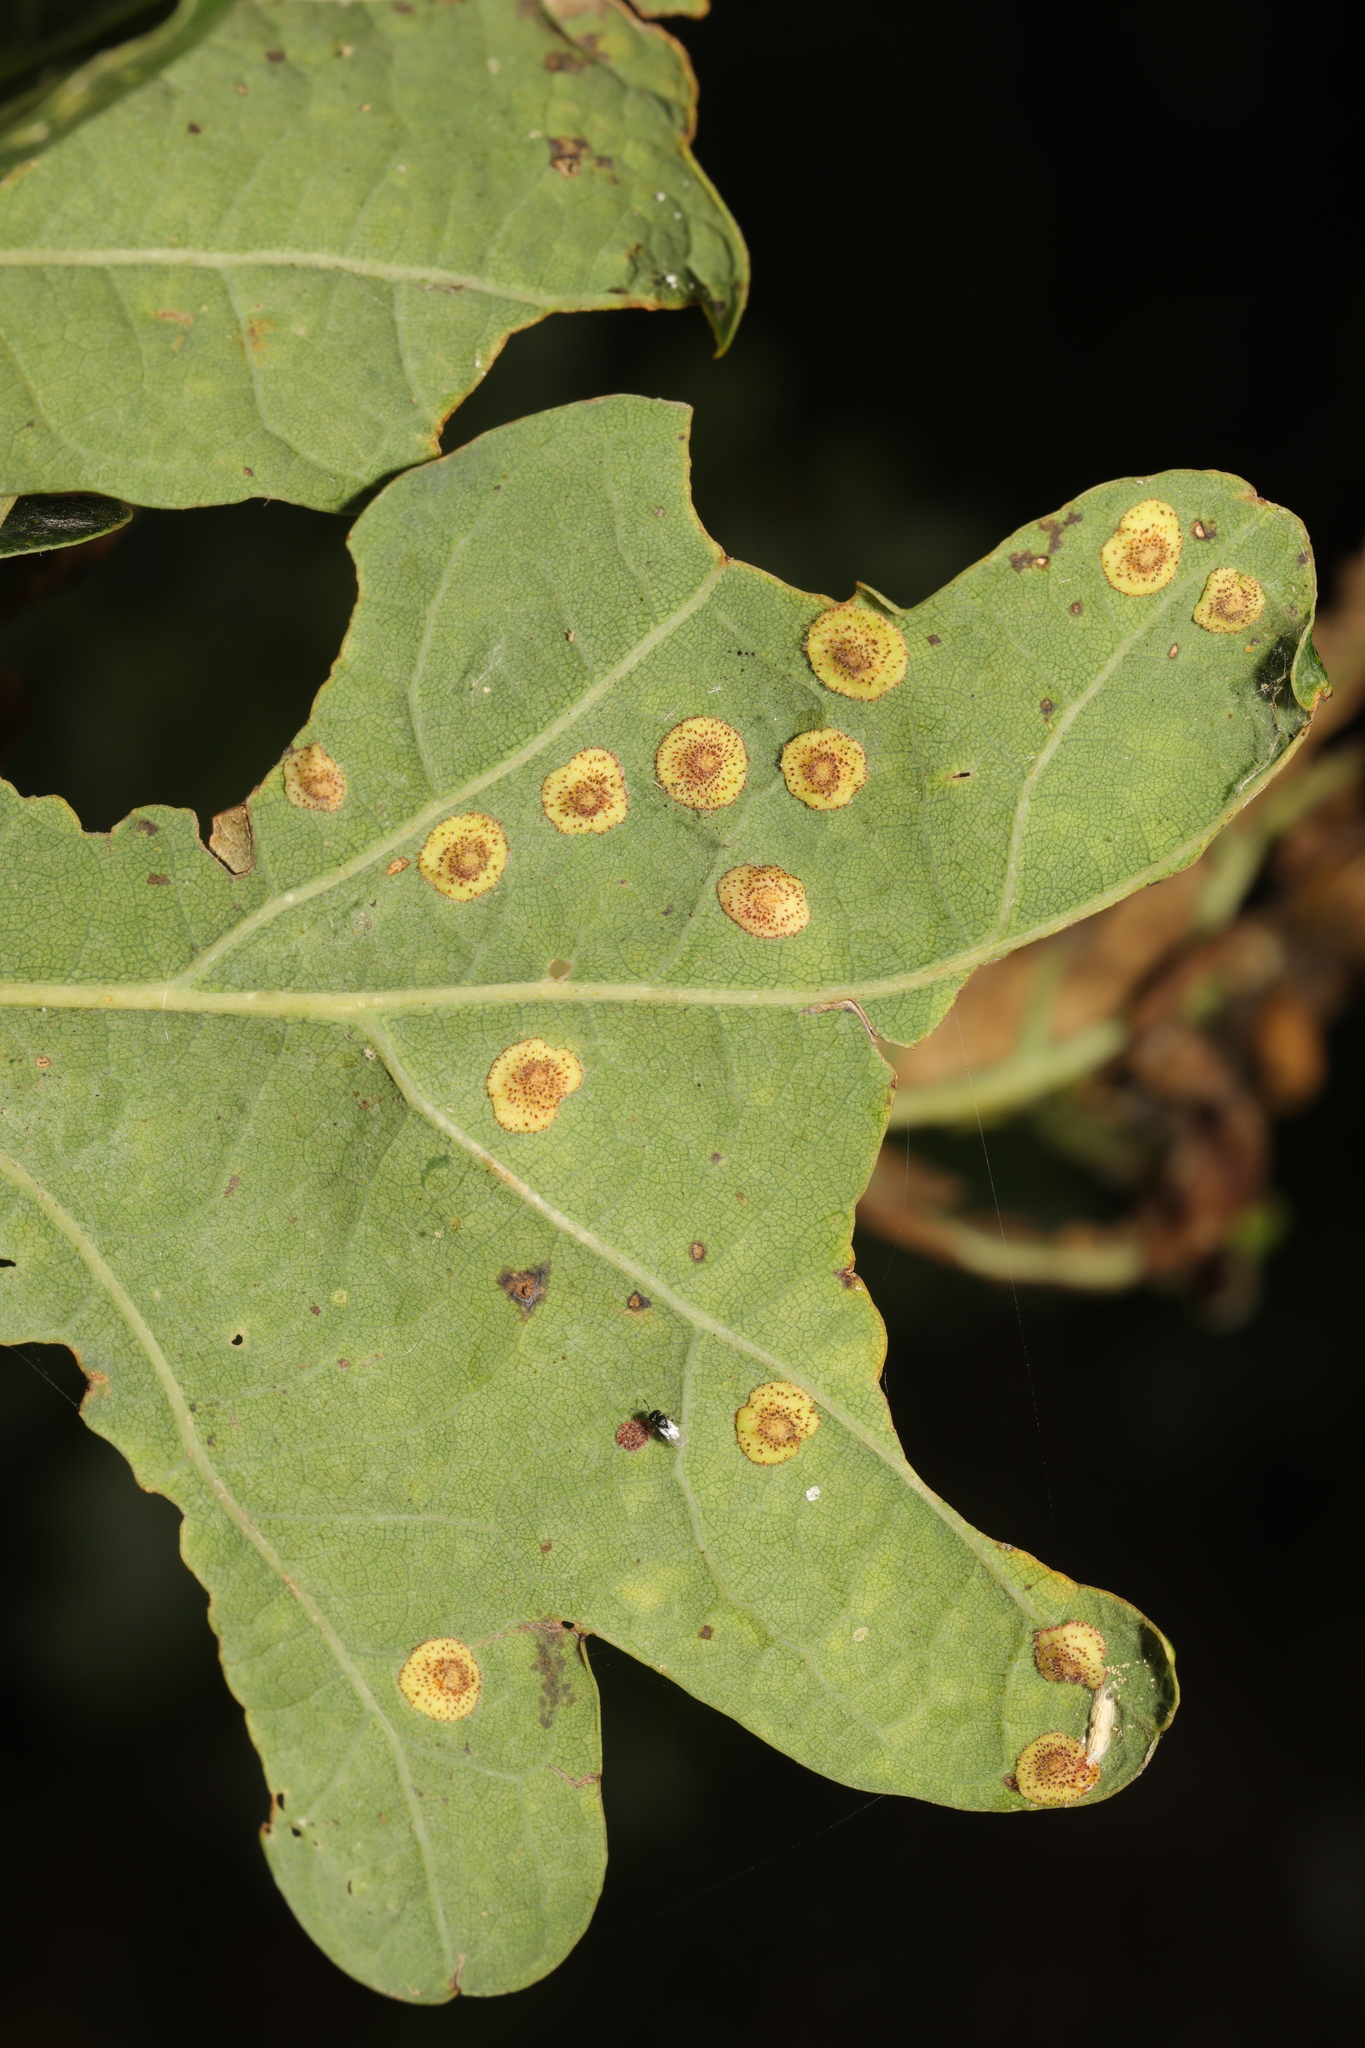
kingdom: Animalia
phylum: Arthropoda
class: Insecta
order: Hymenoptera
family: Cynipidae
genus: Neuroterus
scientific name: Neuroterus quercusbaccarum
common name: Common spangle gall
